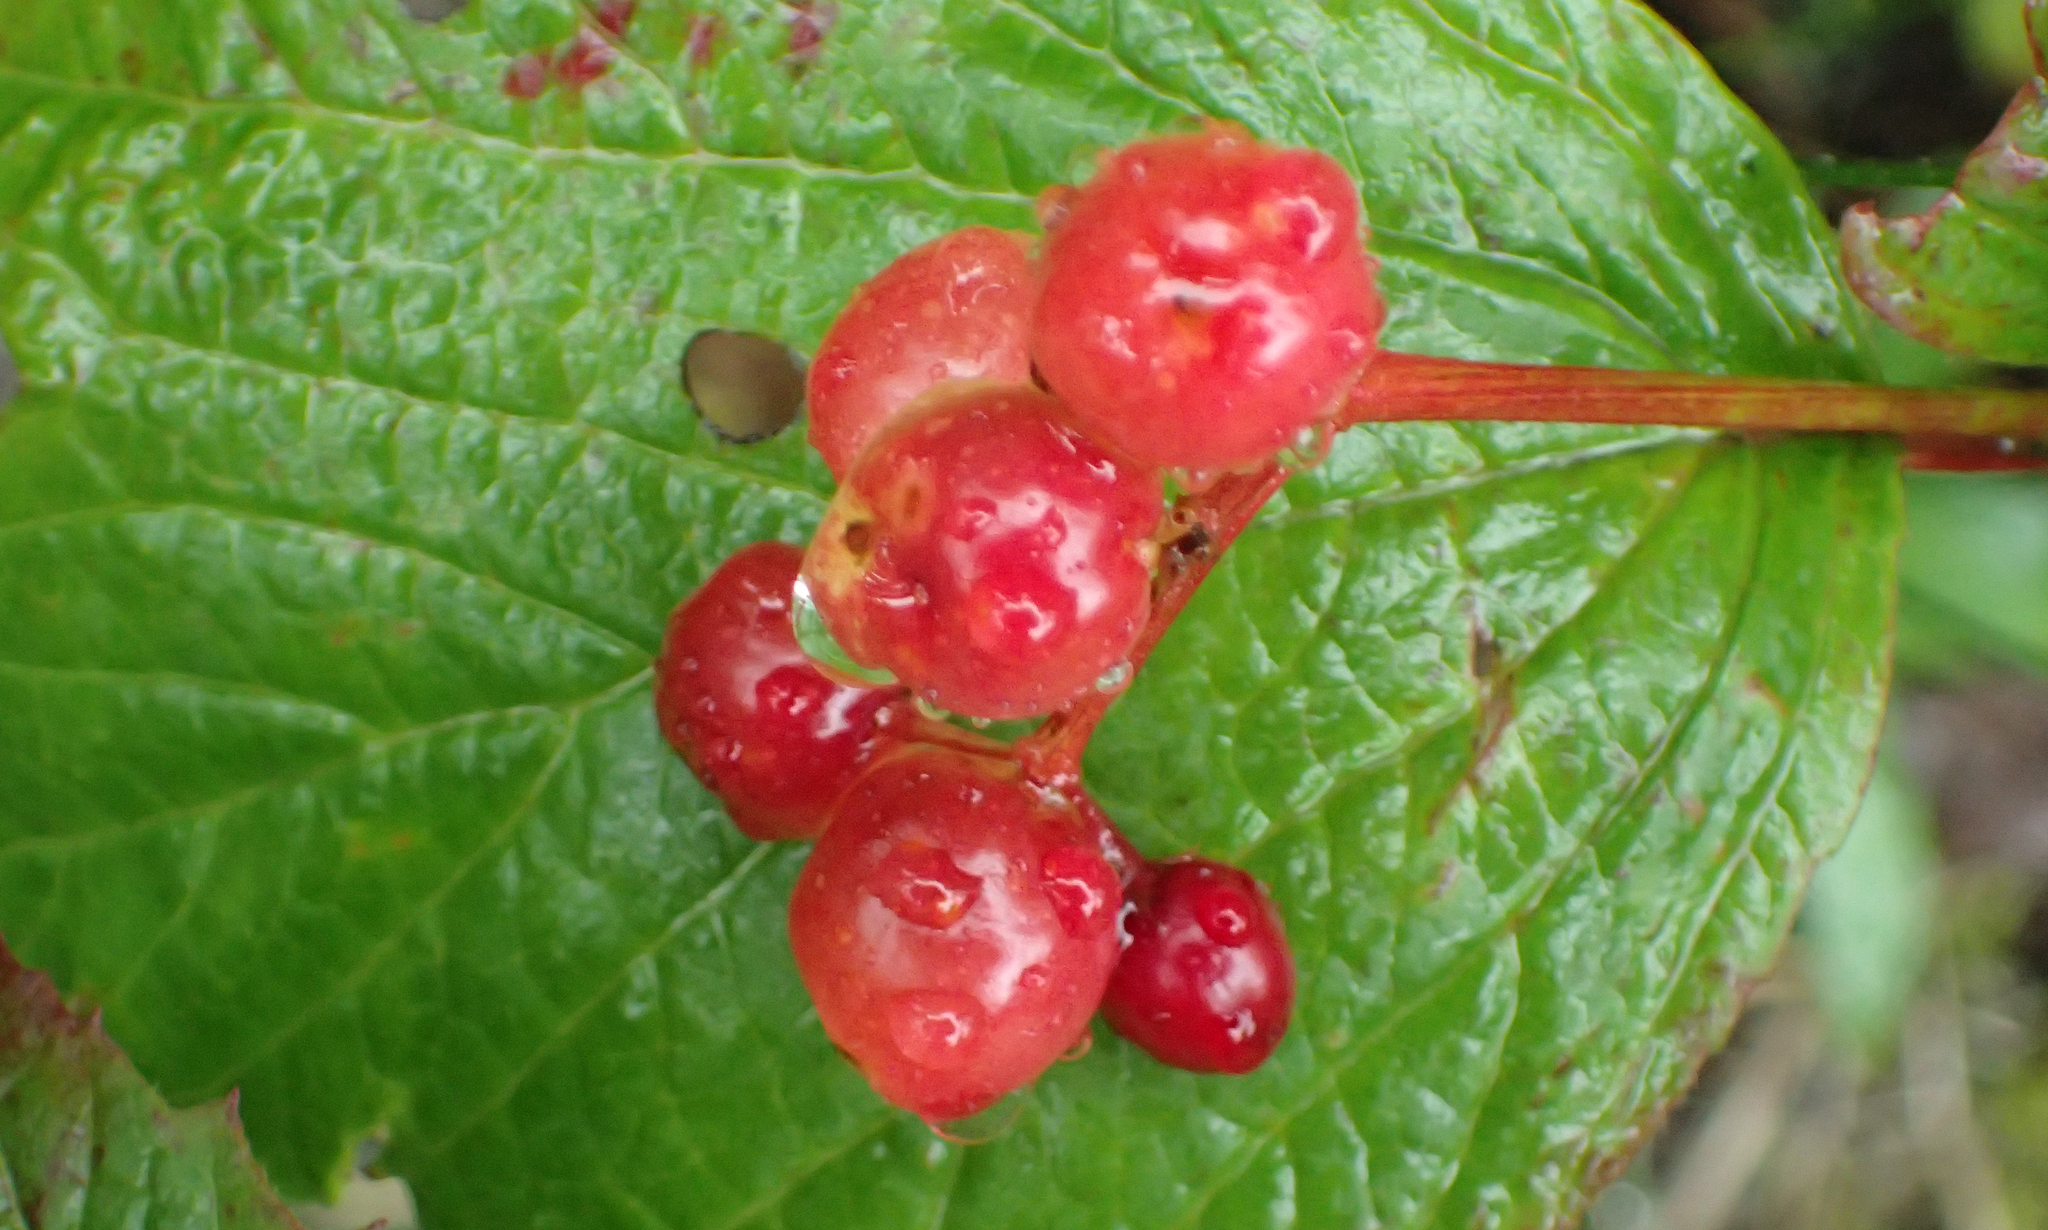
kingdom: Plantae
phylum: Tracheophyta
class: Magnoliopsida
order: Dipsacales
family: Viburnaceae
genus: Viburnum
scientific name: Viburnum edule
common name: Mooseberry
